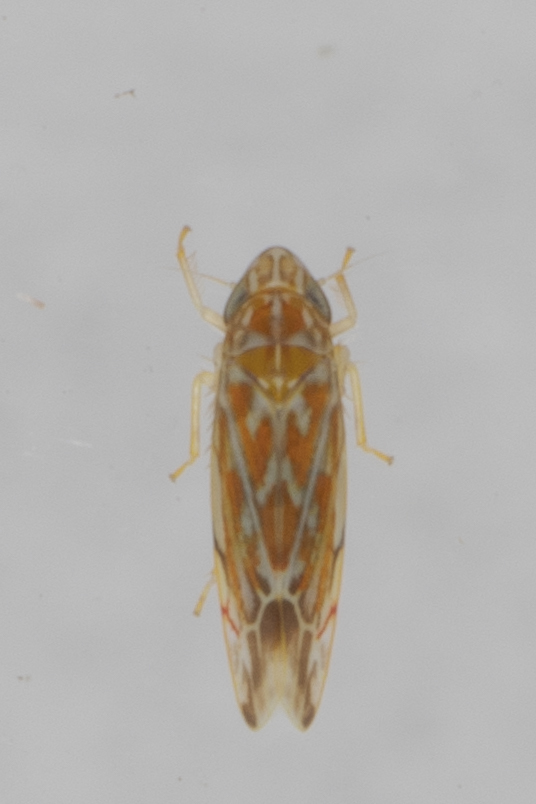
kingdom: Animalia
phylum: Arthropoda
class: Insecta
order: Hemiptera
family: Cicadellidae
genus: Erasmoneura
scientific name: Erasmoneura vulnerata
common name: The wounded leafhopper
